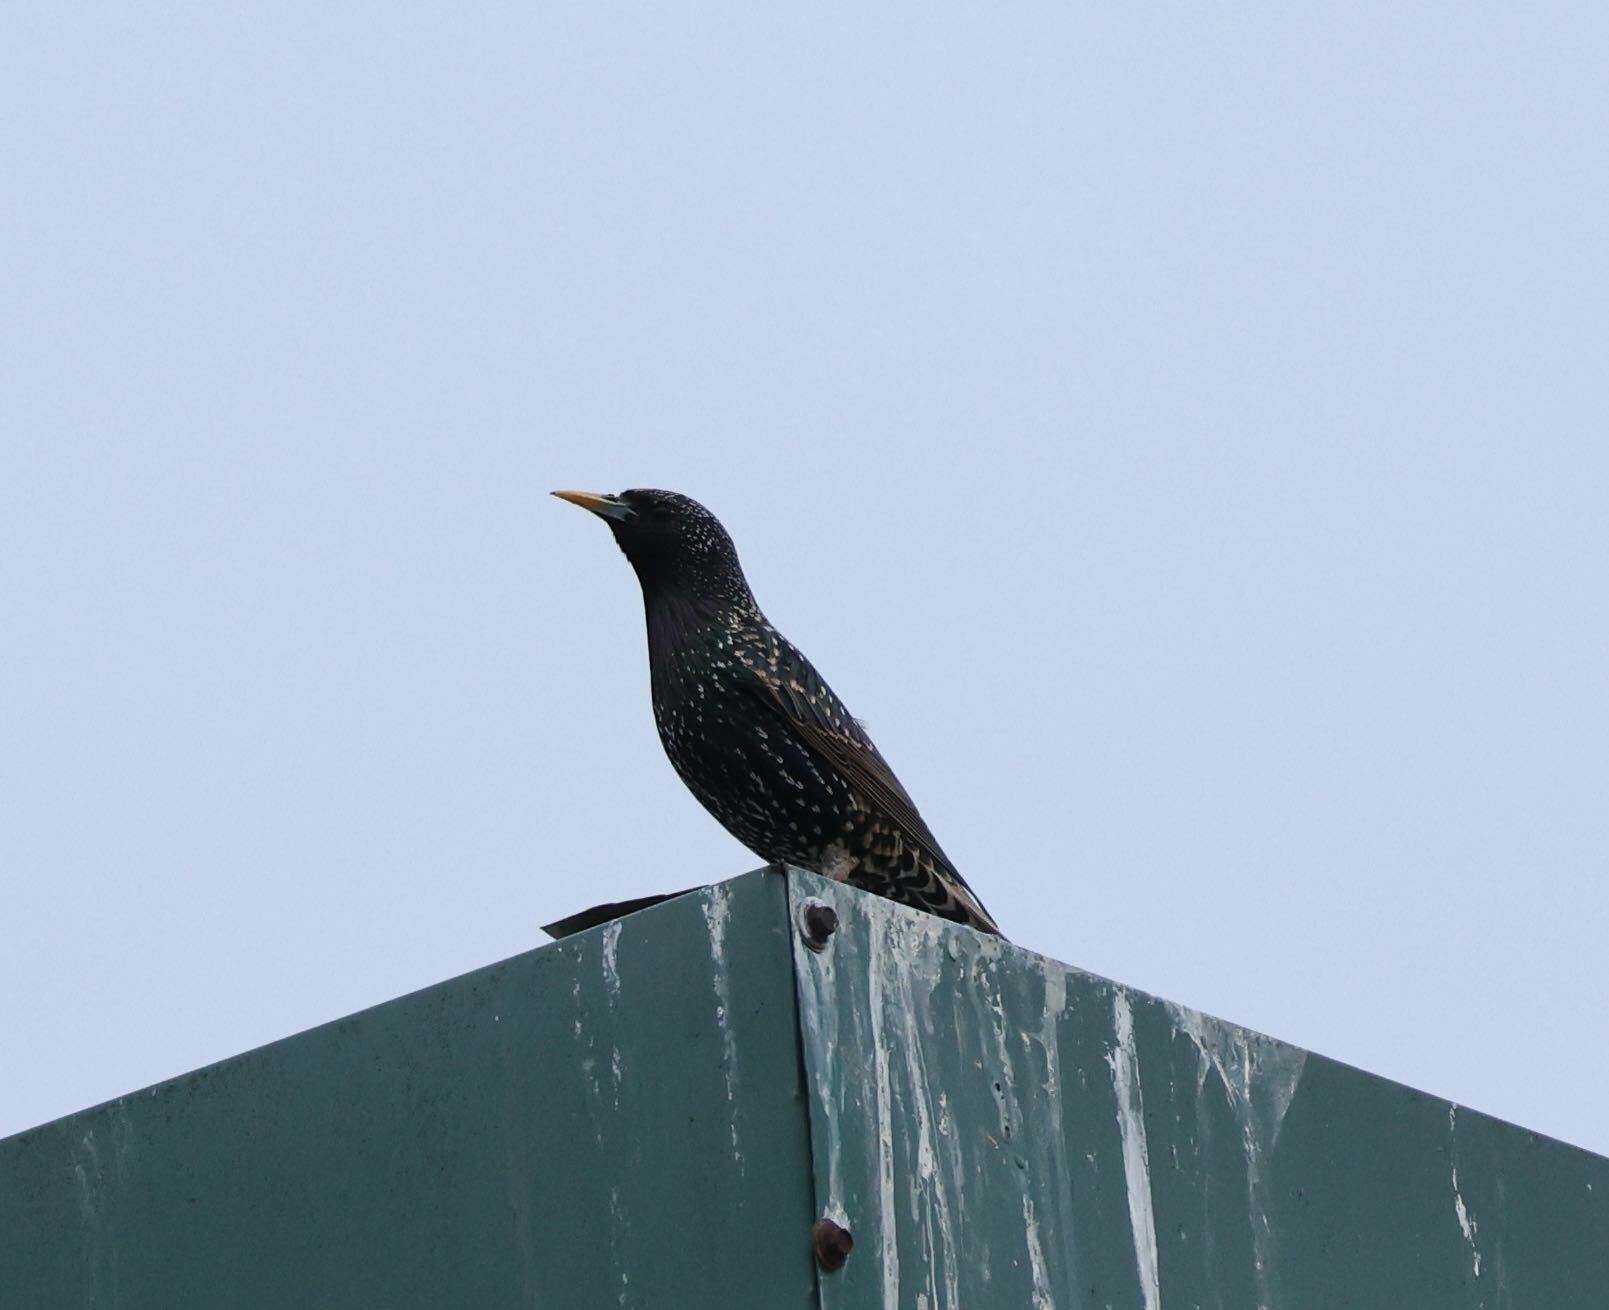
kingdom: Animalia
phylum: Chordata
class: Aves
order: Passeriformes
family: Sturnidae
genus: Sturnus
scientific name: Sturnus vulgaris
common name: Common starling
